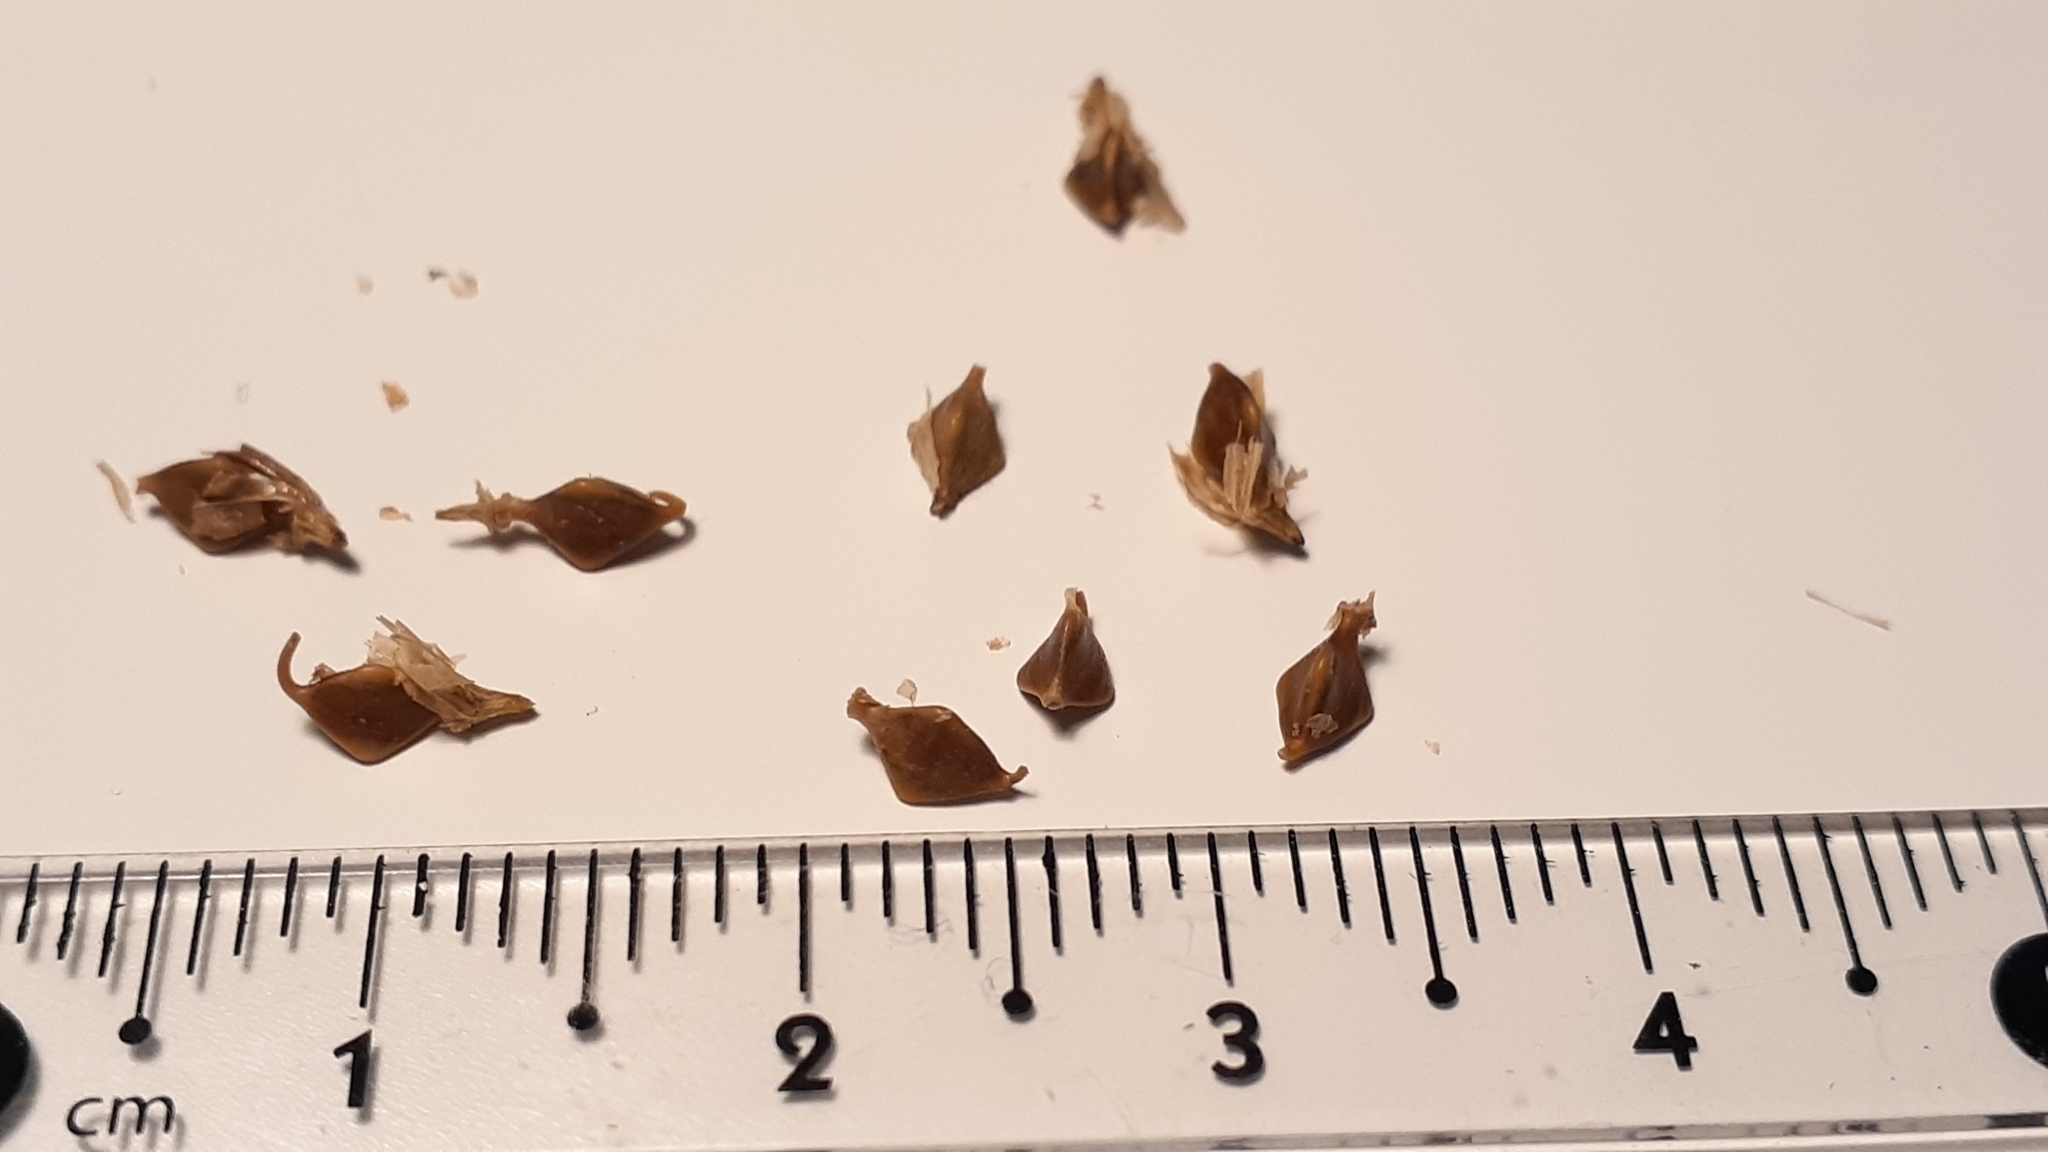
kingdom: Plantae
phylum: Tracheophyta
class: Liliopsida
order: Poales
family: Cyperaceae
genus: Carex
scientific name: Carex lupulina
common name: Hop sedge
